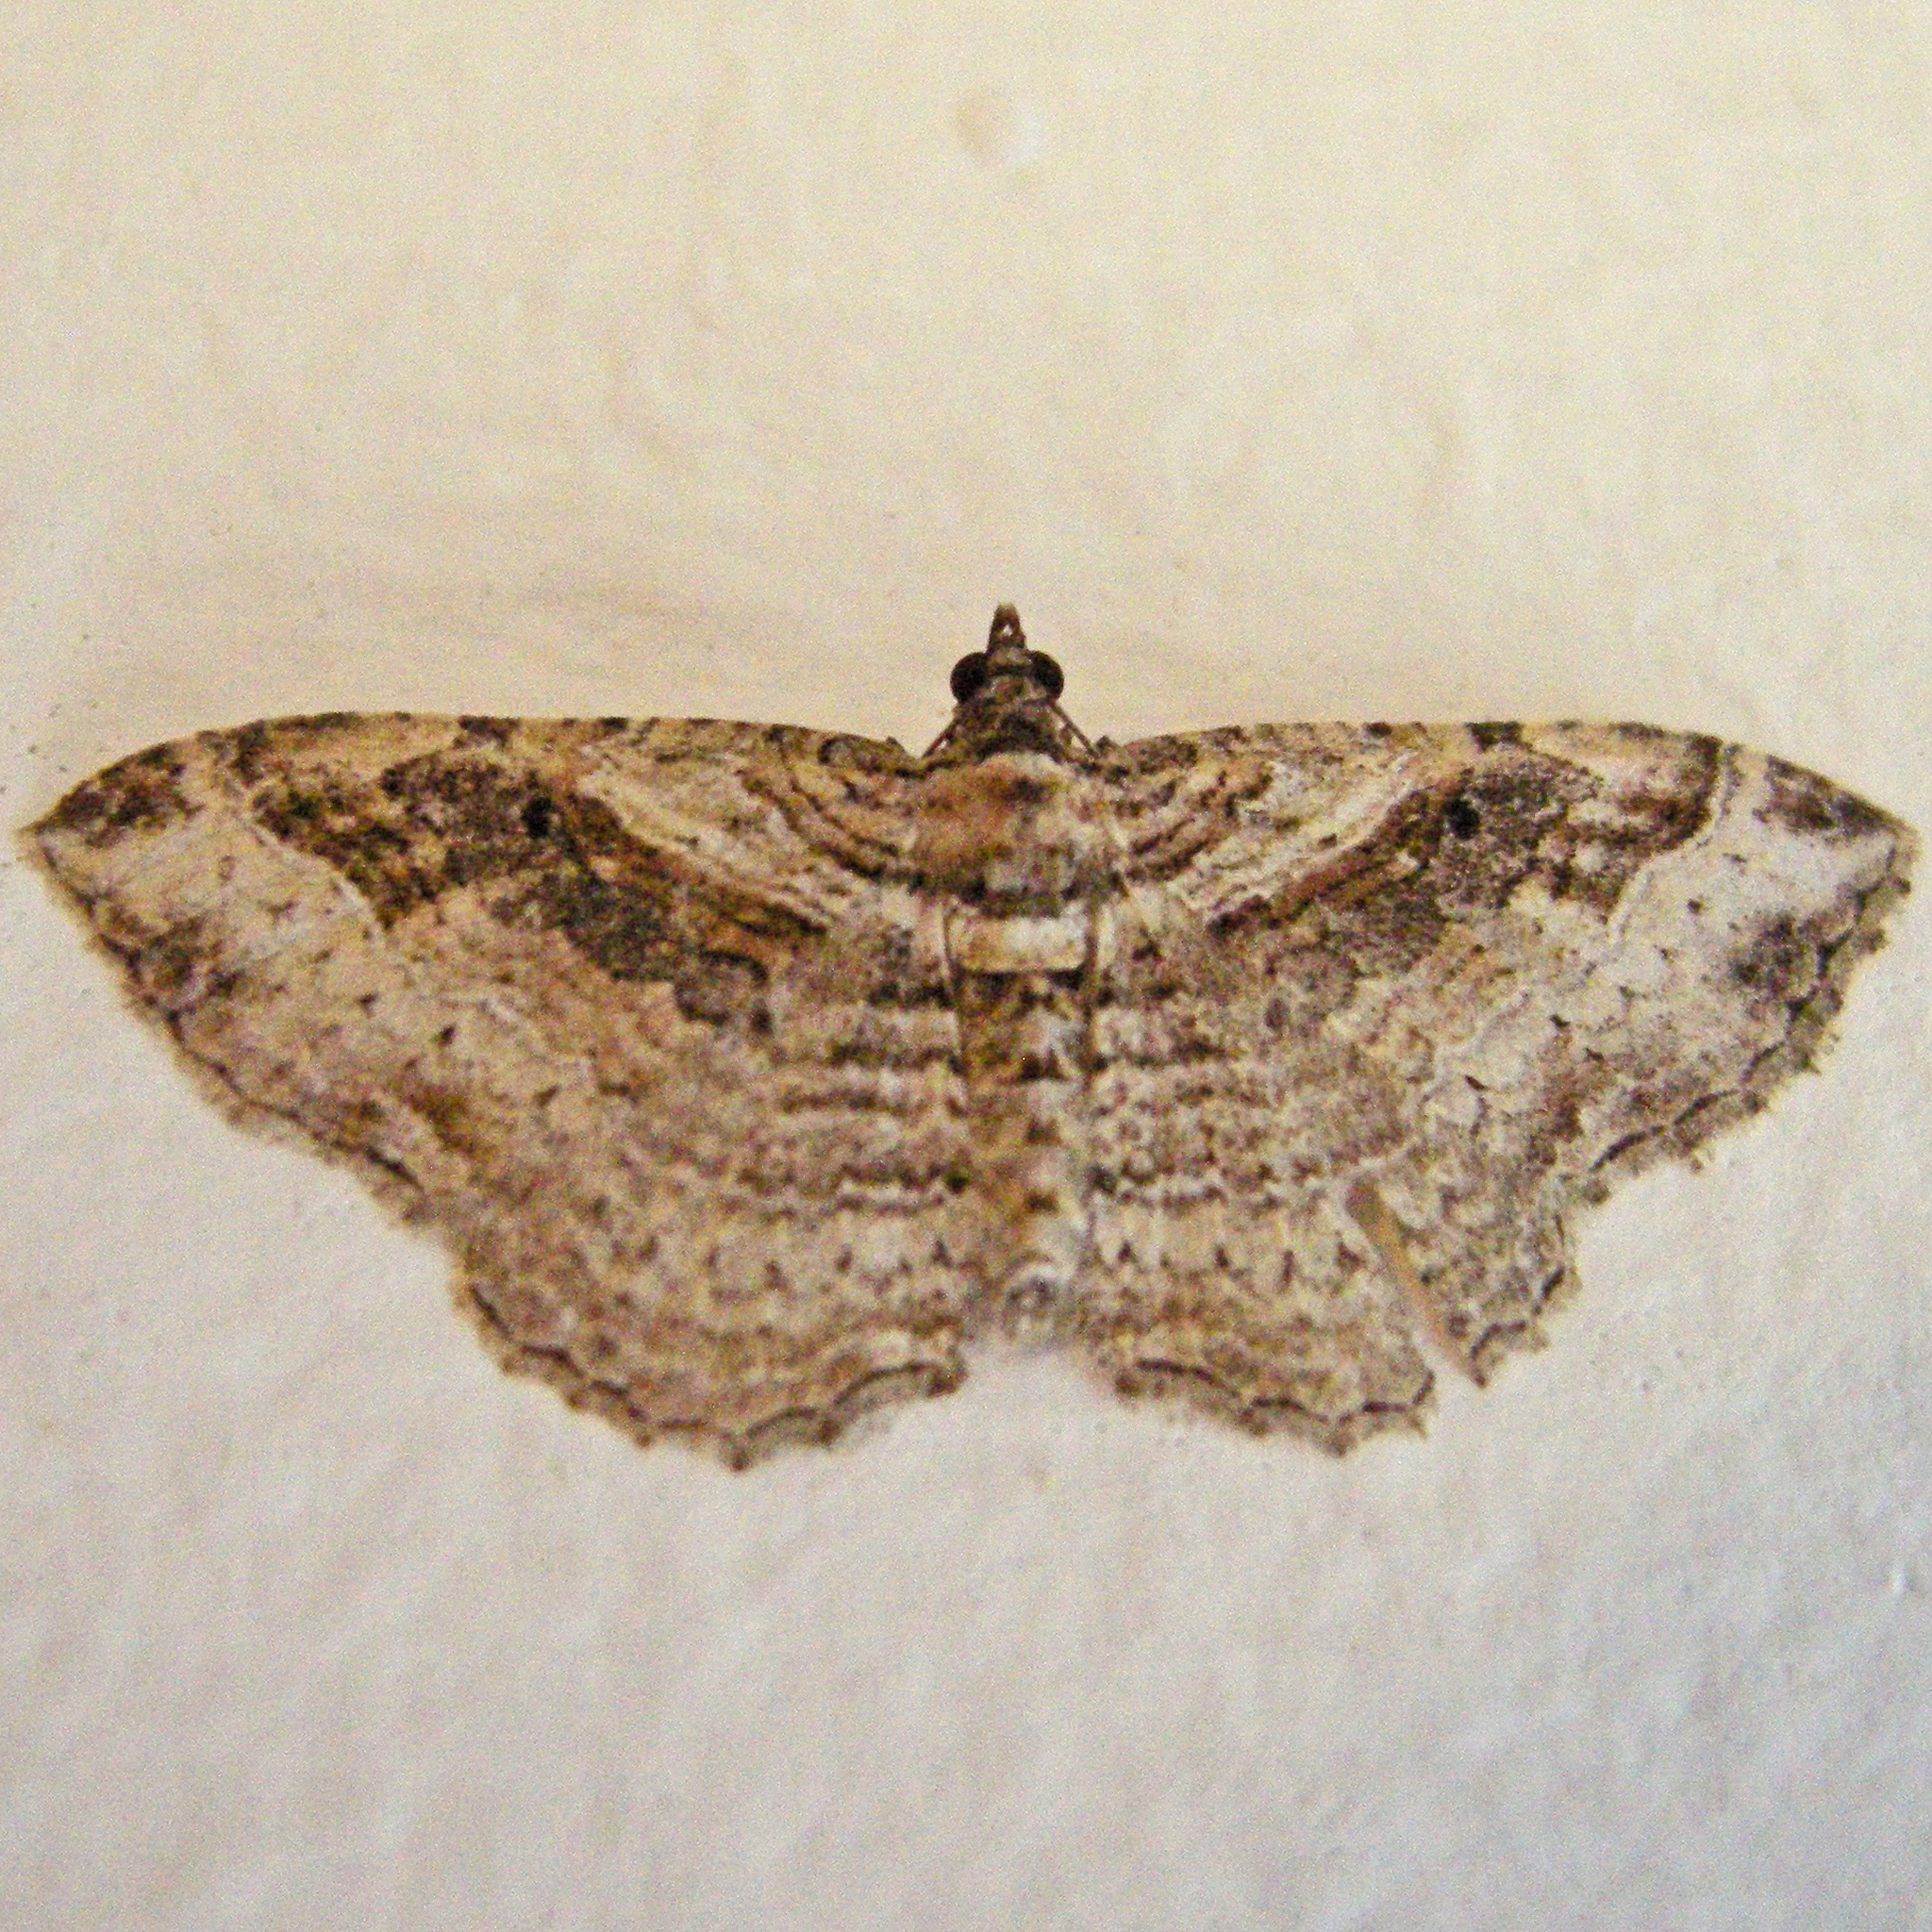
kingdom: Animalia
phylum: Arthropoda
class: Insecta
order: Lepidoptera
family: Geometridae
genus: Costaconvexa
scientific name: Costaconvexa centrostrigaria
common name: Bent-line carpet
